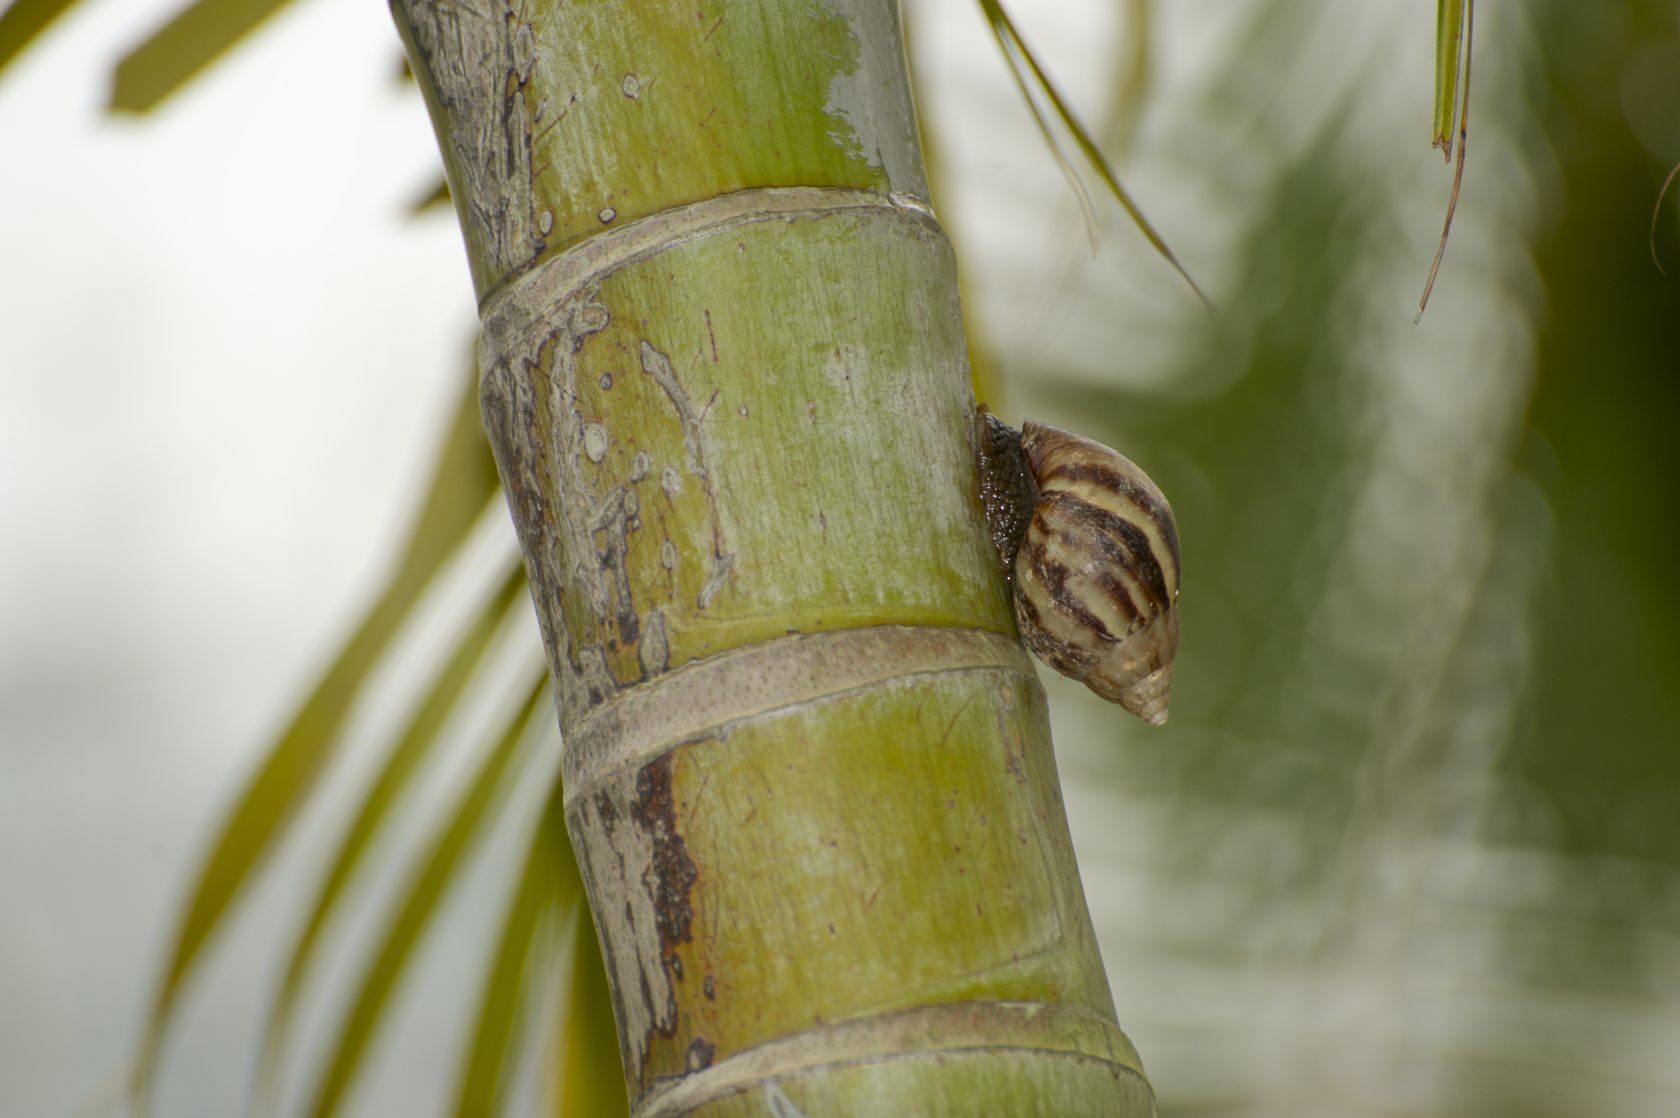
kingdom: Animalia
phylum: Mollusca
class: Gastropoda
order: Stylommatophora
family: Achatinidae
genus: Lissachatina
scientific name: Lissachatina fulica
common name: Giant african snail
